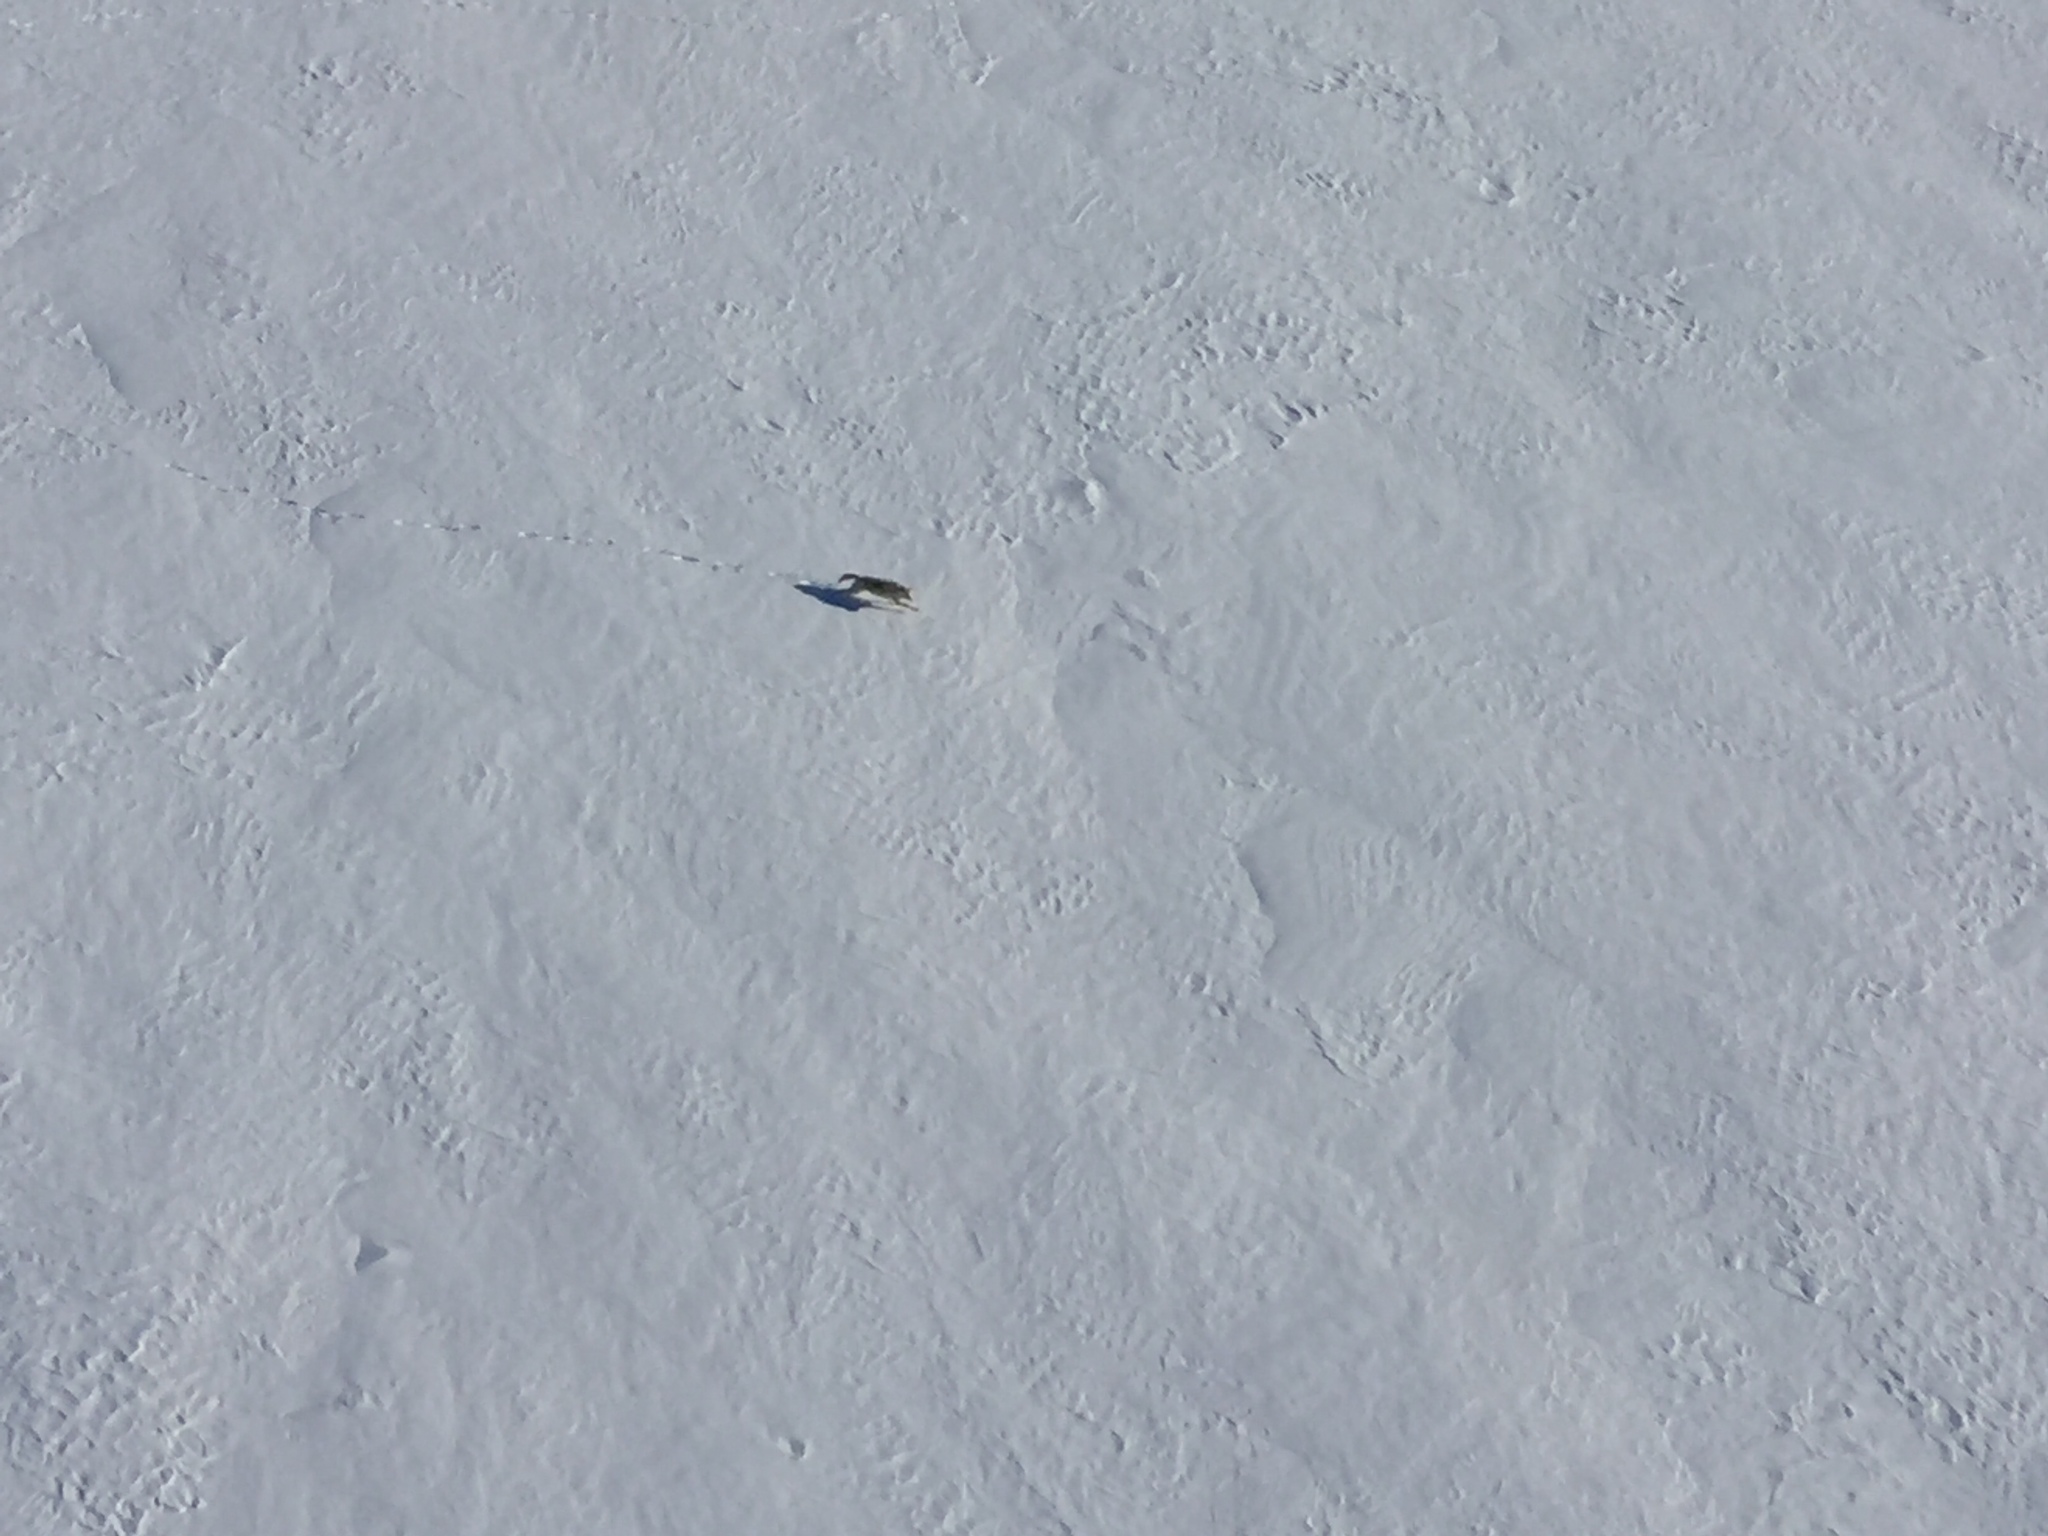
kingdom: Animalia
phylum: Chordata
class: Mammalia
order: Carnivora
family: Canidae
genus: Canis
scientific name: Canis lupus
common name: Gray wolf
